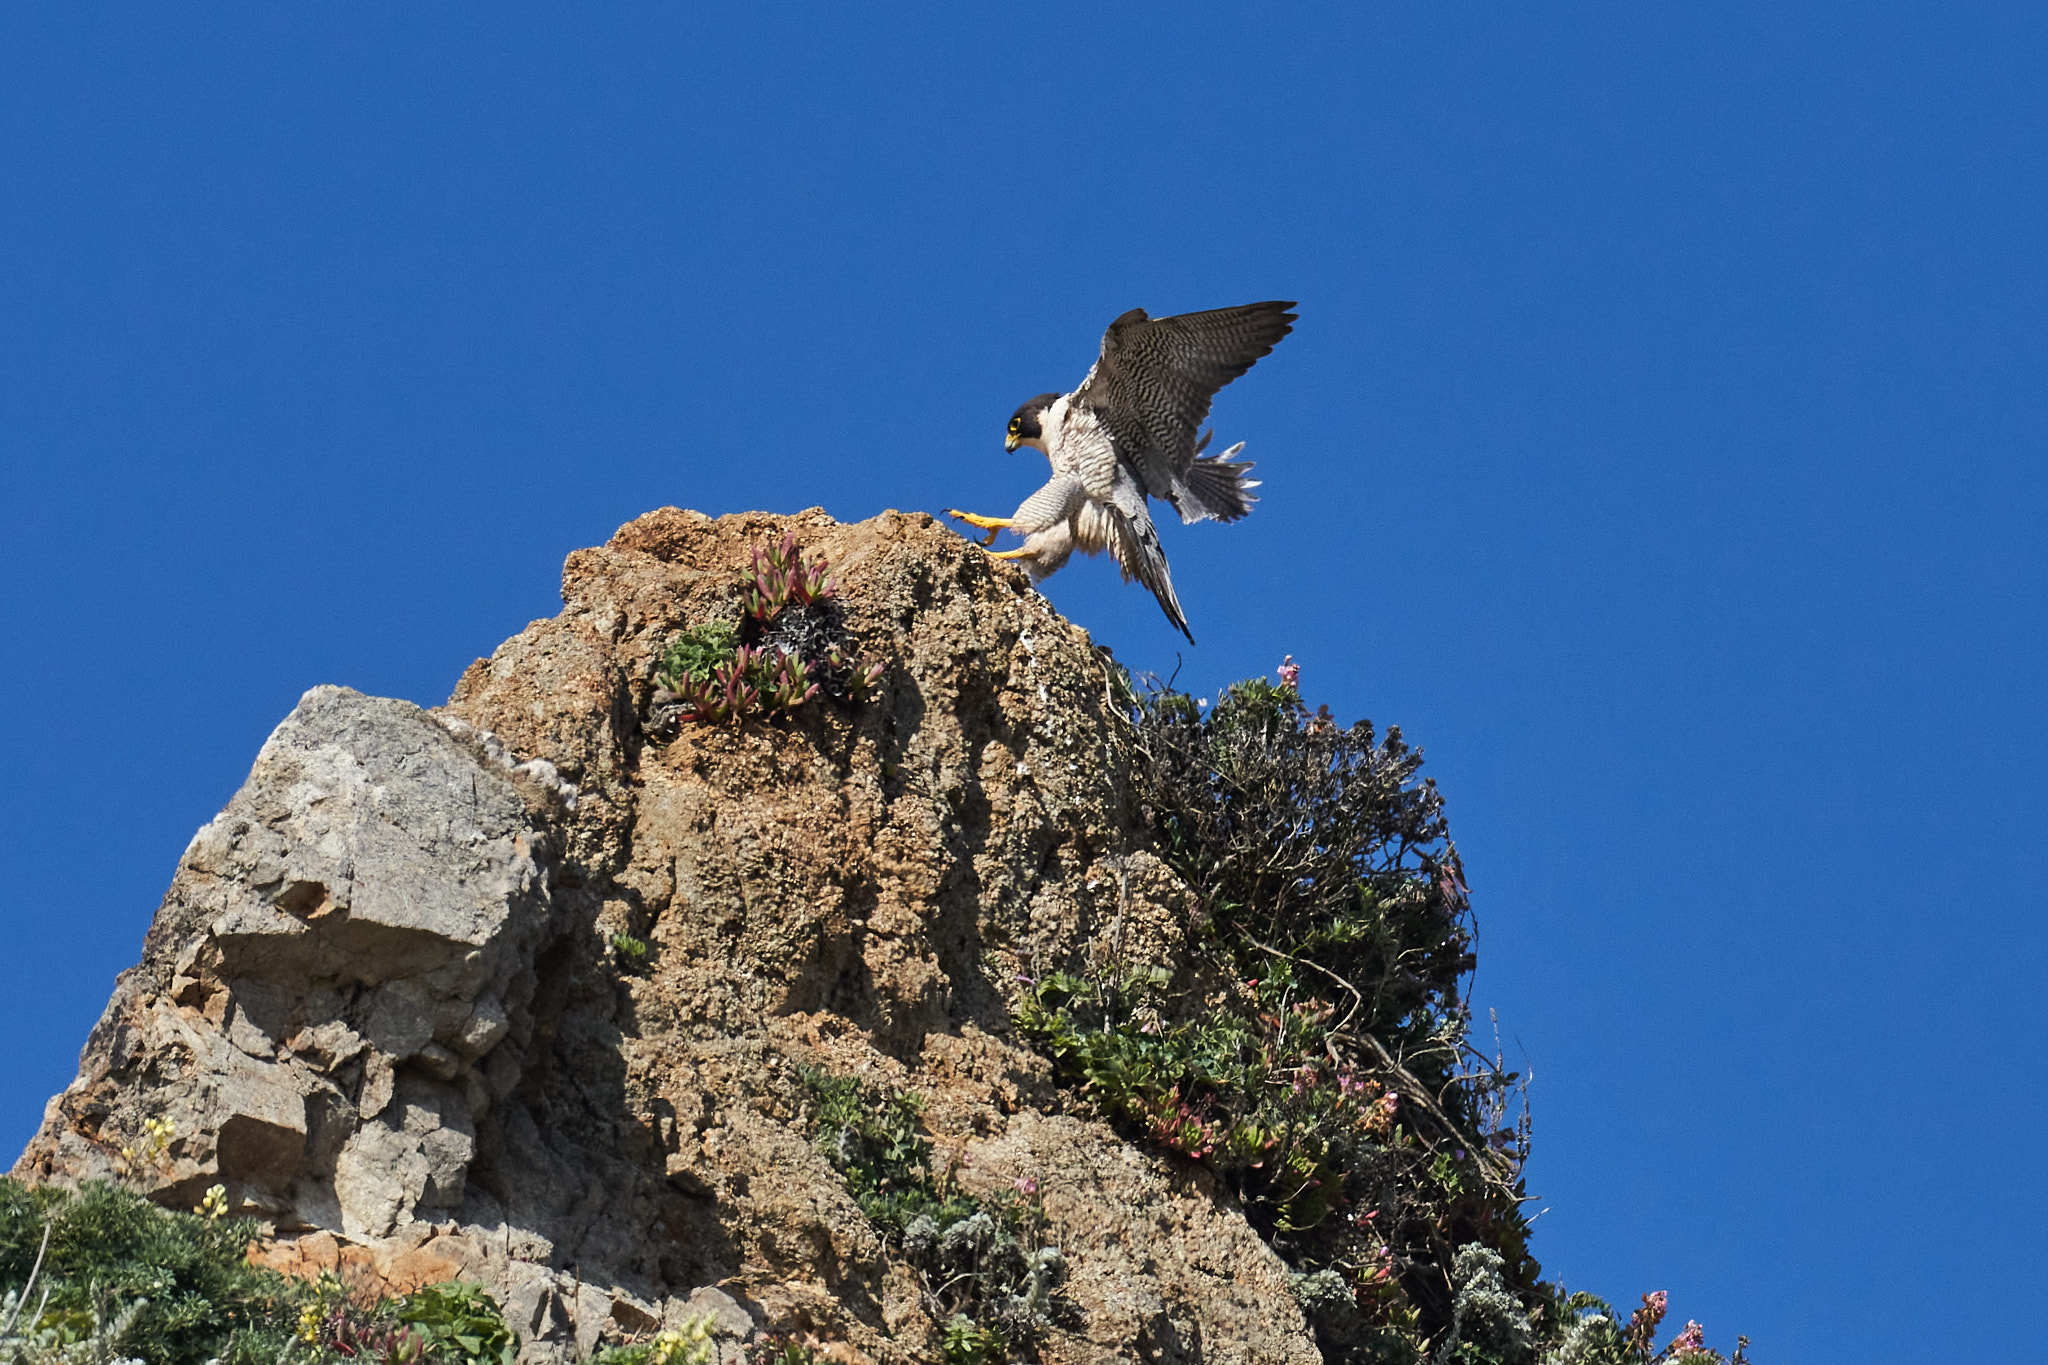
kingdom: Animalia
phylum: Chordata
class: Aves
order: Falconiformes
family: Falconidae
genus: Falco
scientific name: Falco peregrinus
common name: Peregrine falcon
